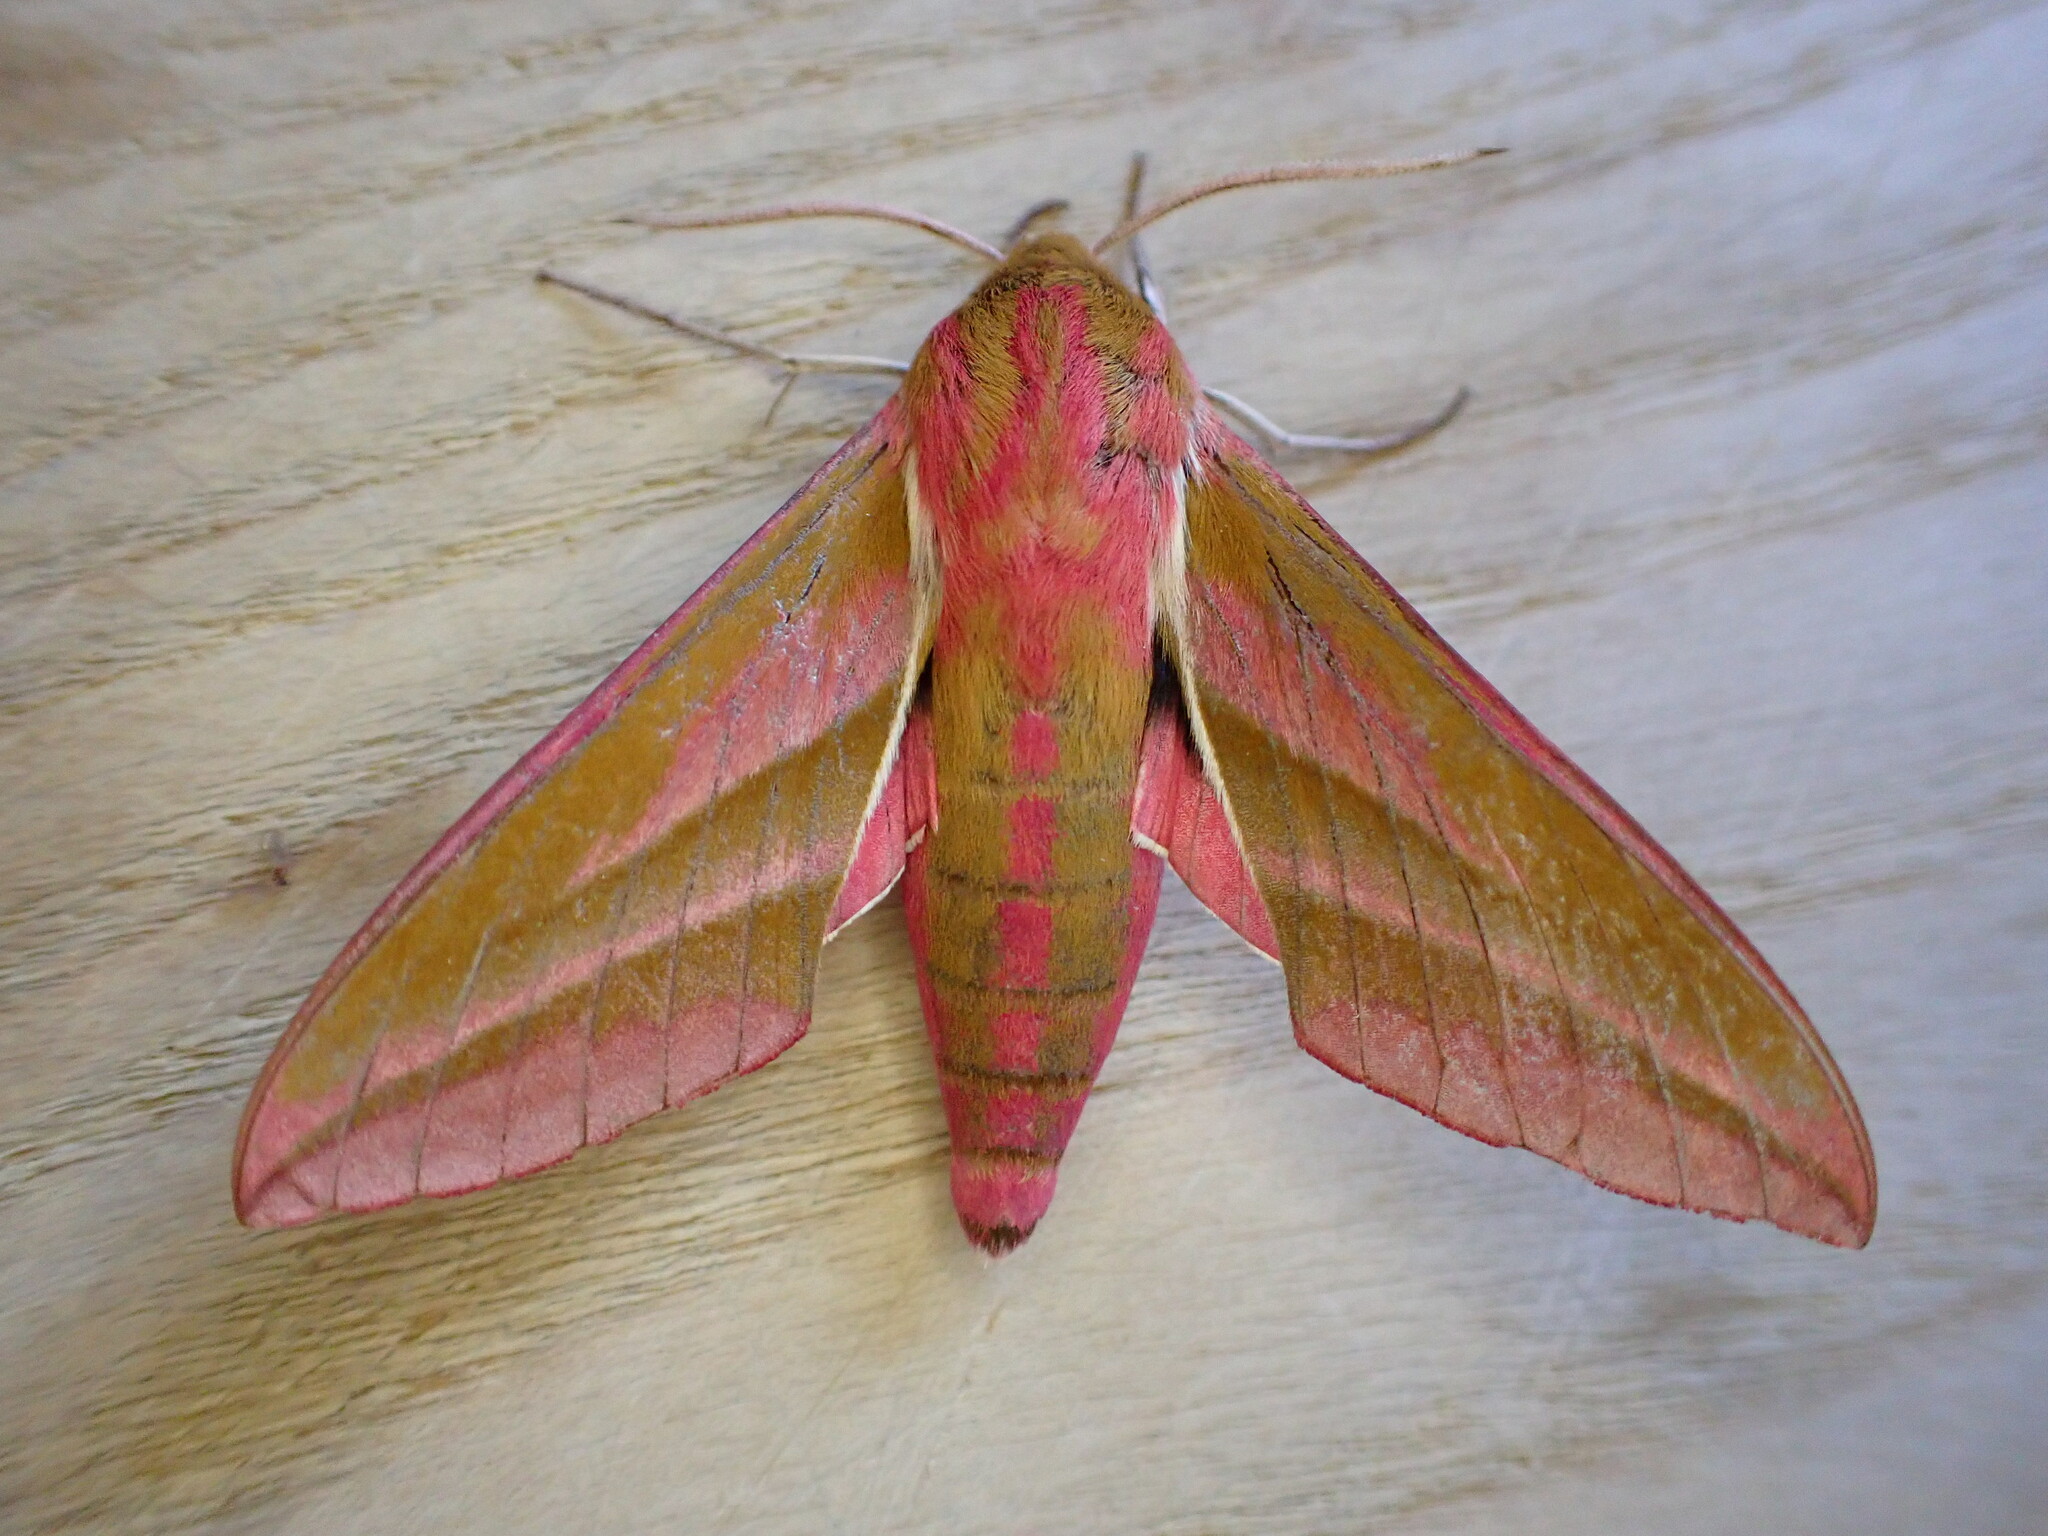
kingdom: Animalia
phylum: Arthropoda
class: Insecta
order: Lepidoptera
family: Sphingidae
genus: Deilephila
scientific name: Deilephila elpenor
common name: Elephant hawk-moth
